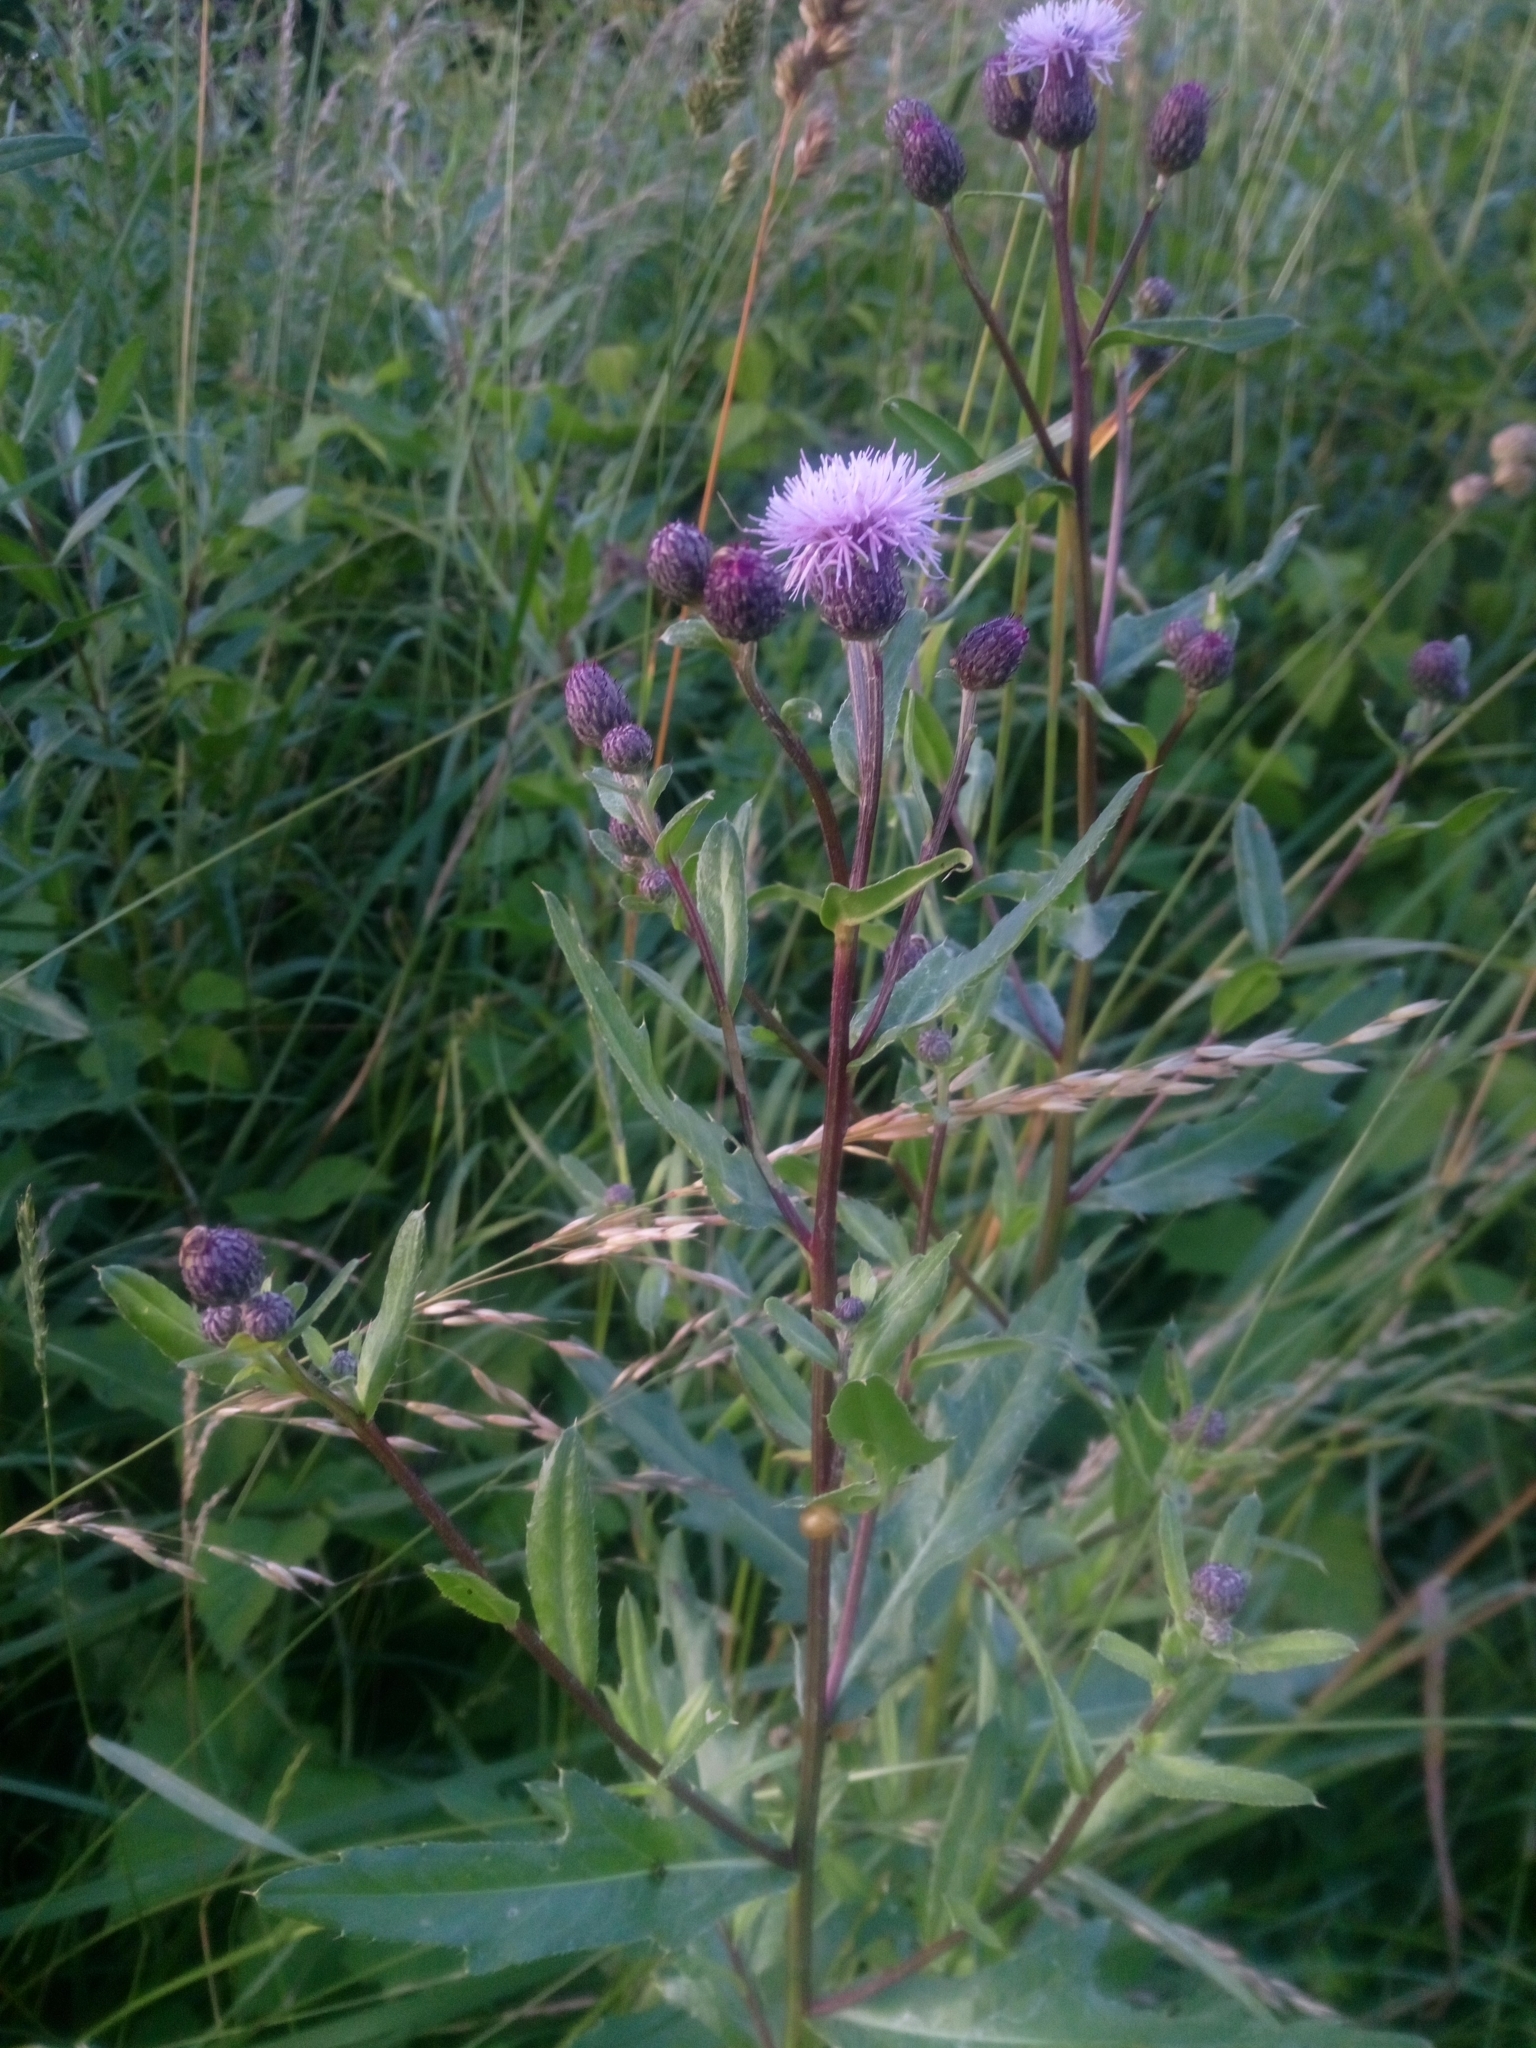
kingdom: Plantae
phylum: Tracheophyta
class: Magnoliopsida
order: Asterales
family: Asteraceae
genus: Cirsium
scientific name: Cirsium arvense
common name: Creeping thistle
